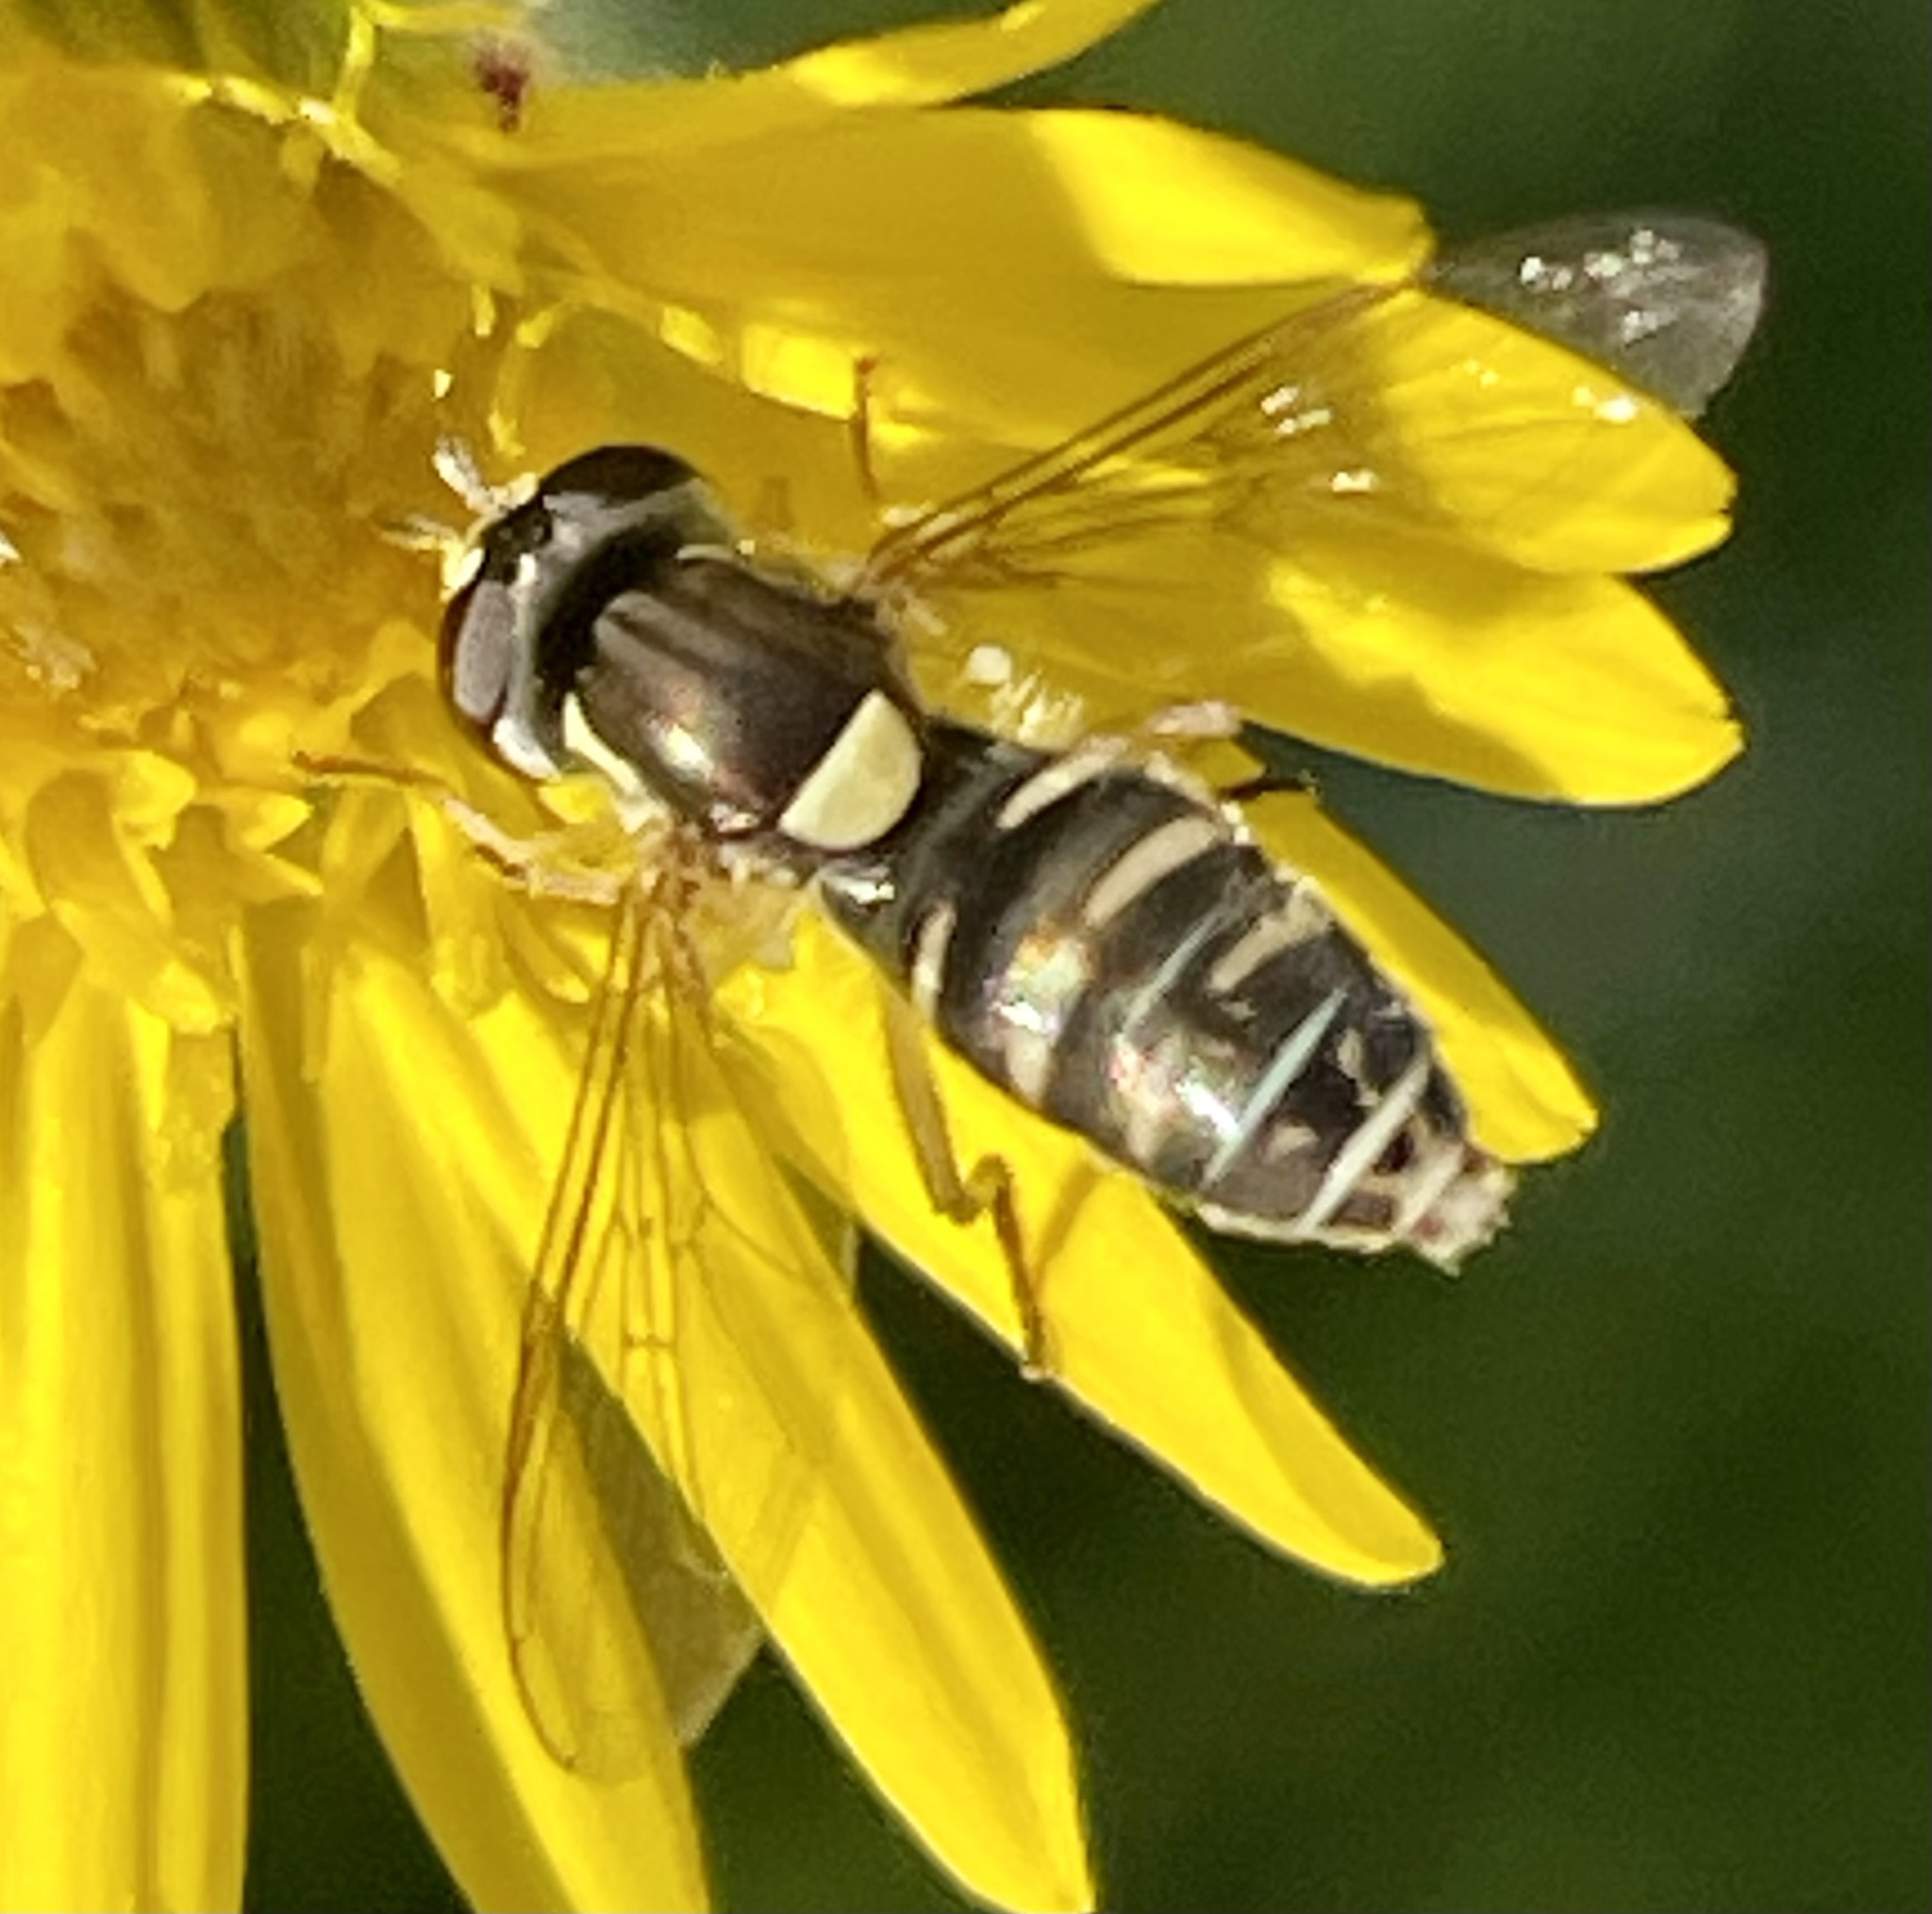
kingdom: Animalia
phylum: Arthropoda
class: Insecta
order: Diptera
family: Syrphidae
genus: Sphaerophoria
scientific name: Sphaerophoria sulphuripes
